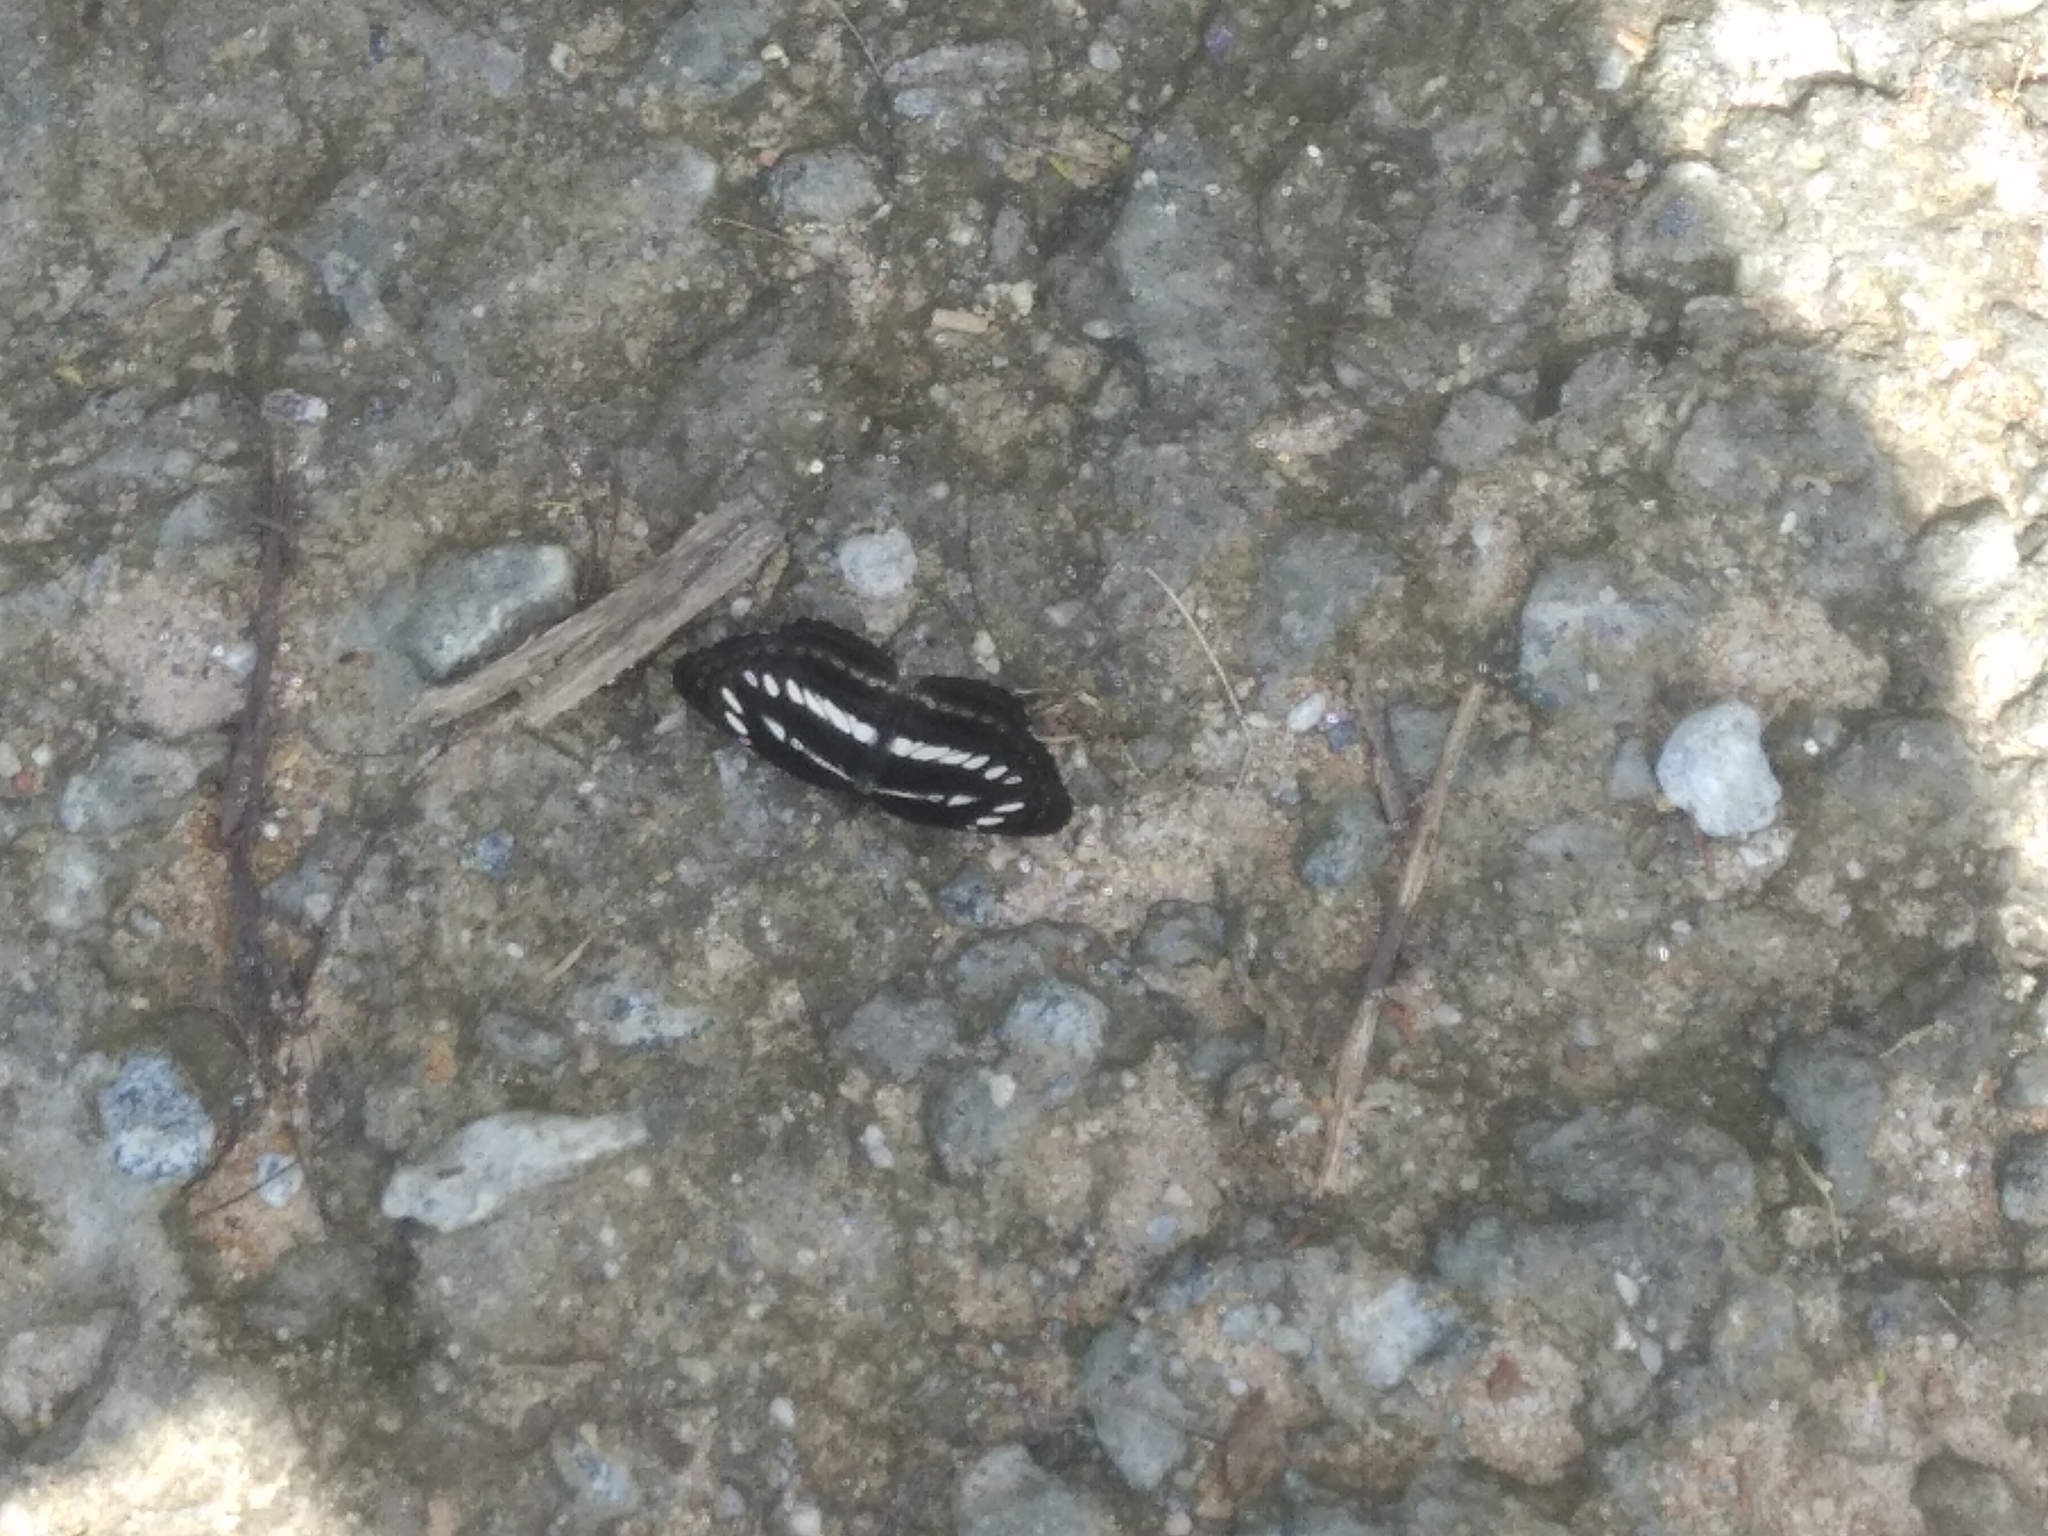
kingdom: Animalia
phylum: Arthropoda
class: Insecta
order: Lepidoptera
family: Nymphalidae
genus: Neptis
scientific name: Neptis jumbah
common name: Chestnut-streaked sailer
